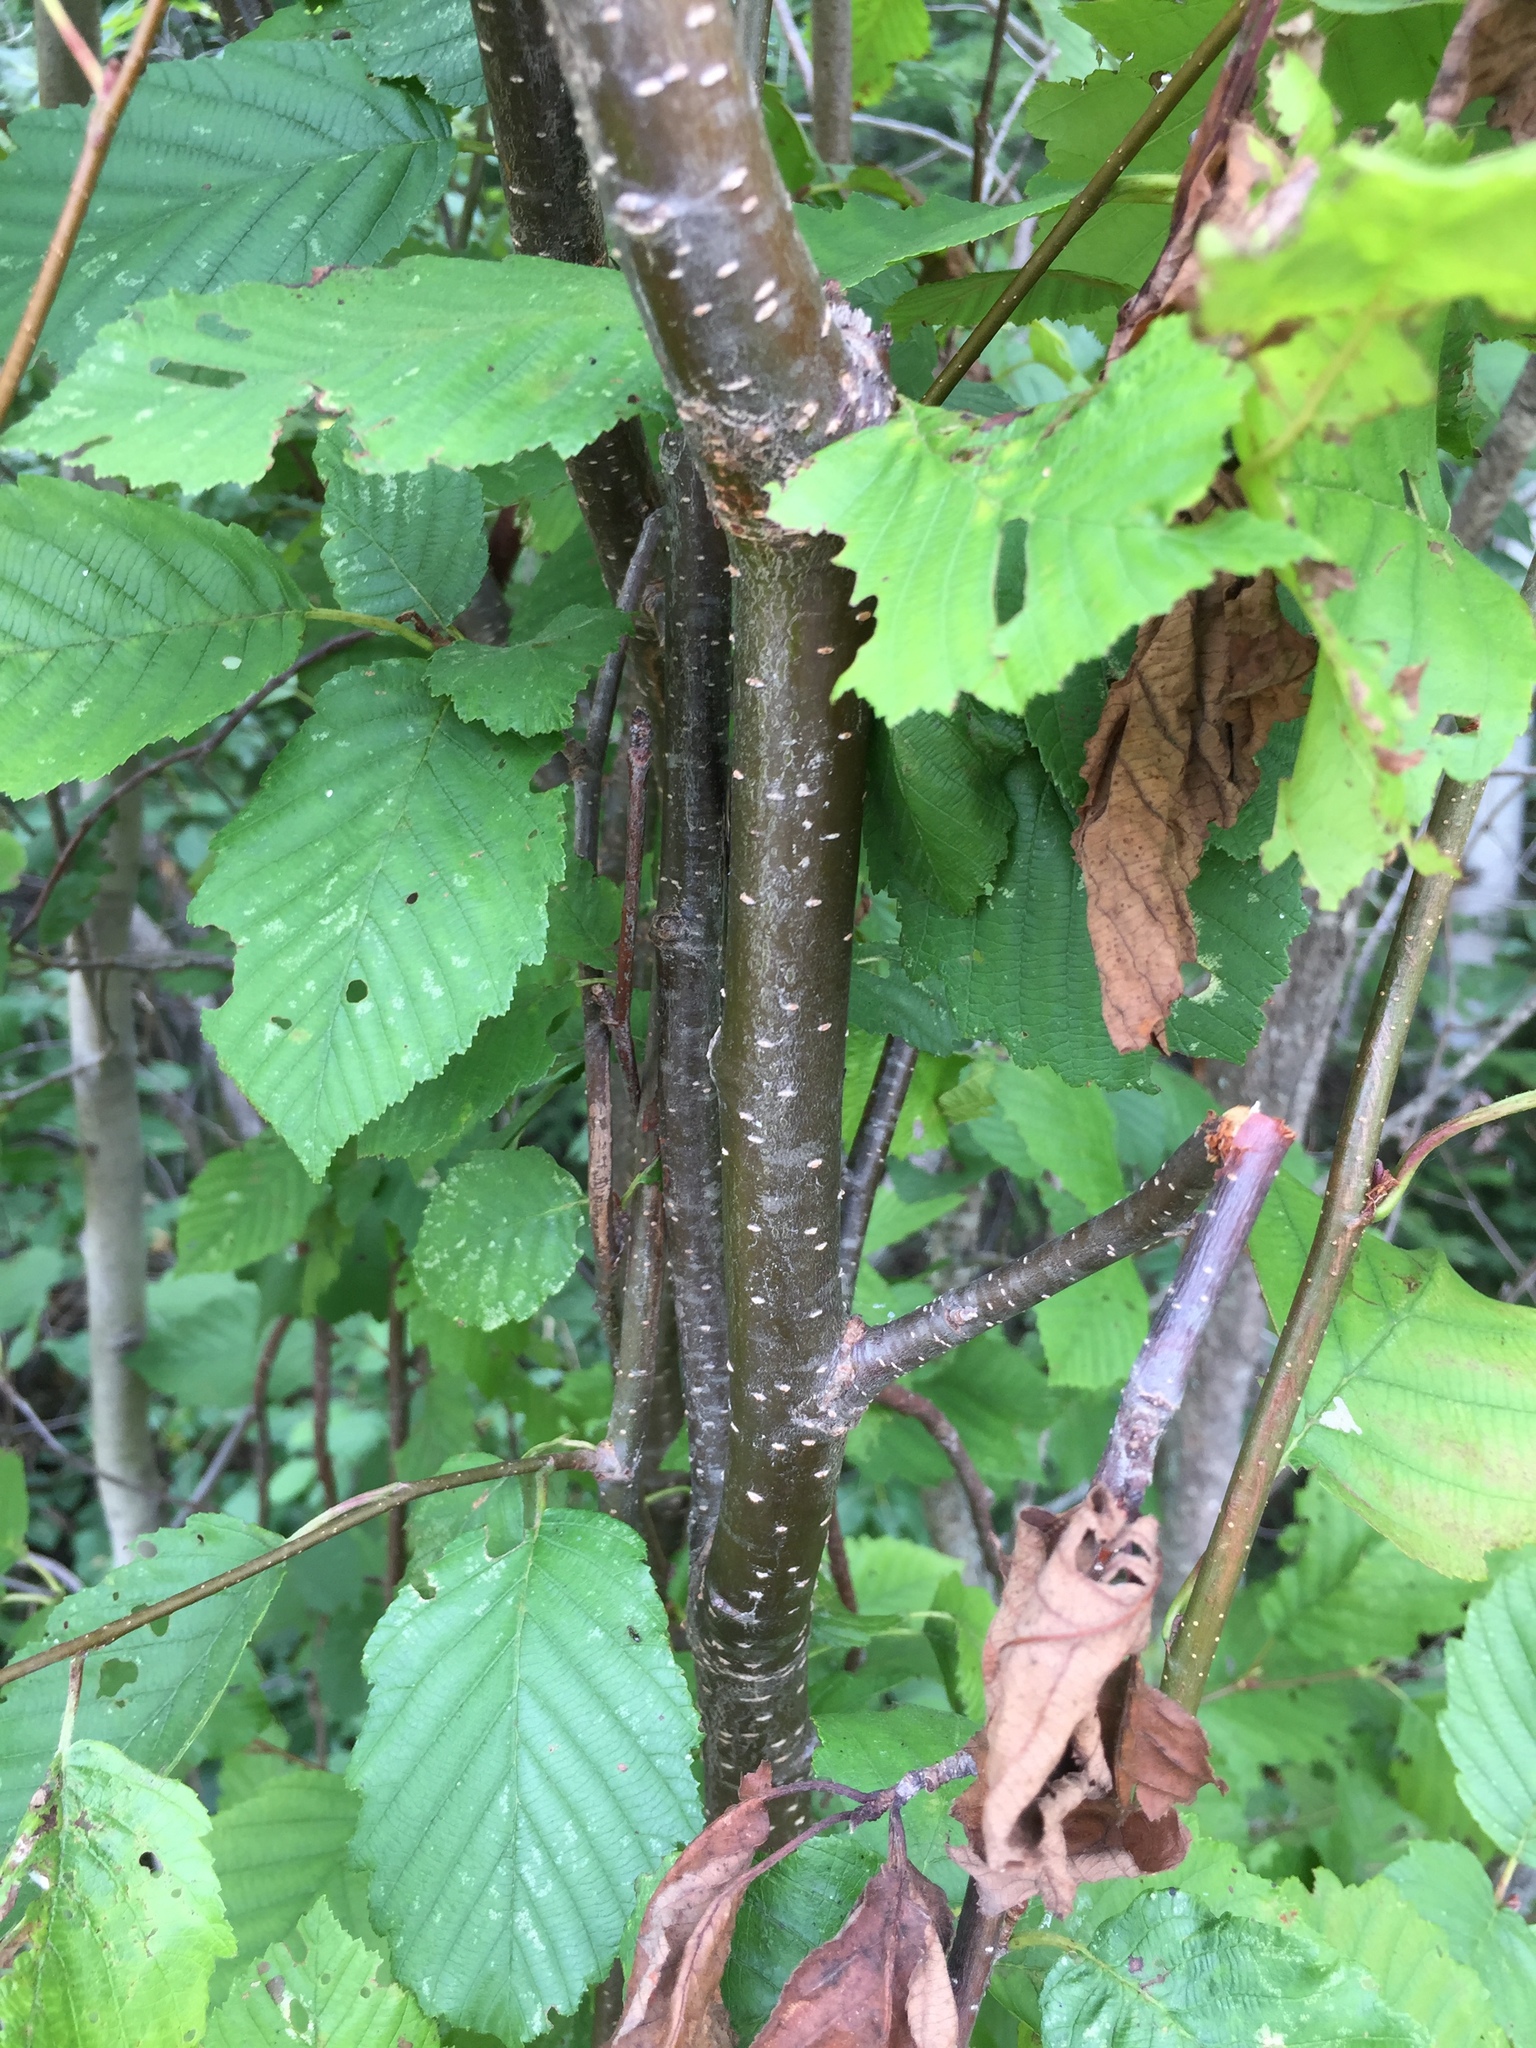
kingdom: Plantae
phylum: Tracheophyta
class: Magnoliopsida
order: Fagales
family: Betulaceae
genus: Alnus
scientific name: Alnus incana
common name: Grey alder
